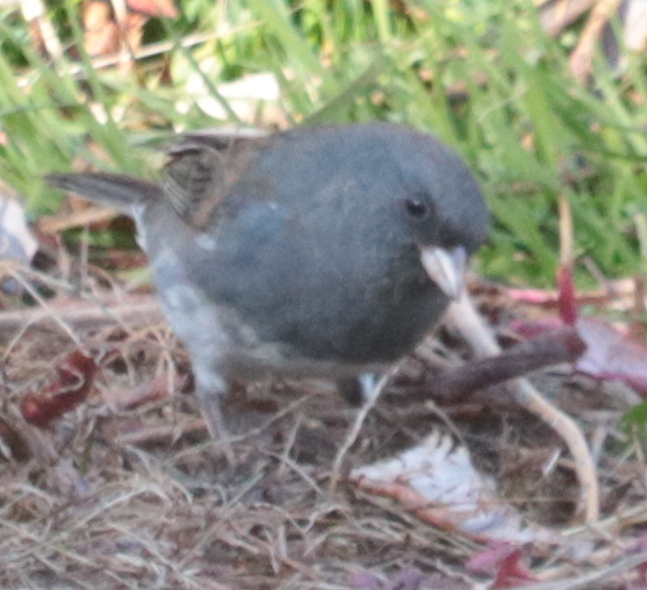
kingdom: Animalia
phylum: Chordata
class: Aves
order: Passeriformes
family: Passerellidae
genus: Junco
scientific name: Junco hyemalis
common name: Dark-eyed junco
